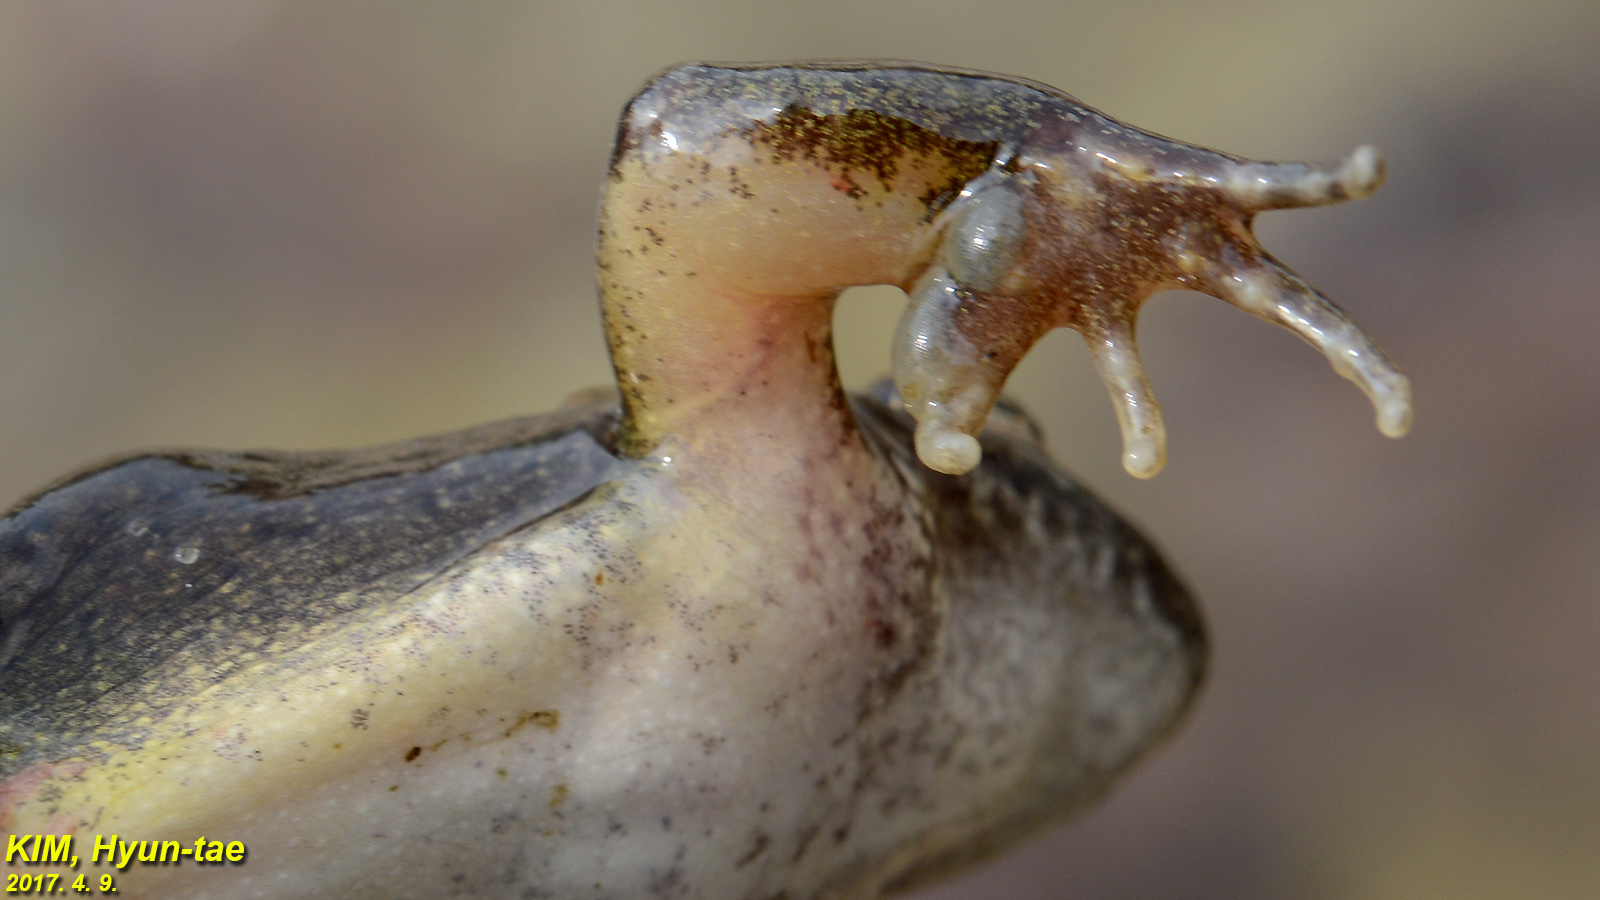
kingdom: Animalia
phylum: Chordata
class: Amphibia
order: Anura
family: Ranidae
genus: Rana
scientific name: Rana huanrenensis
